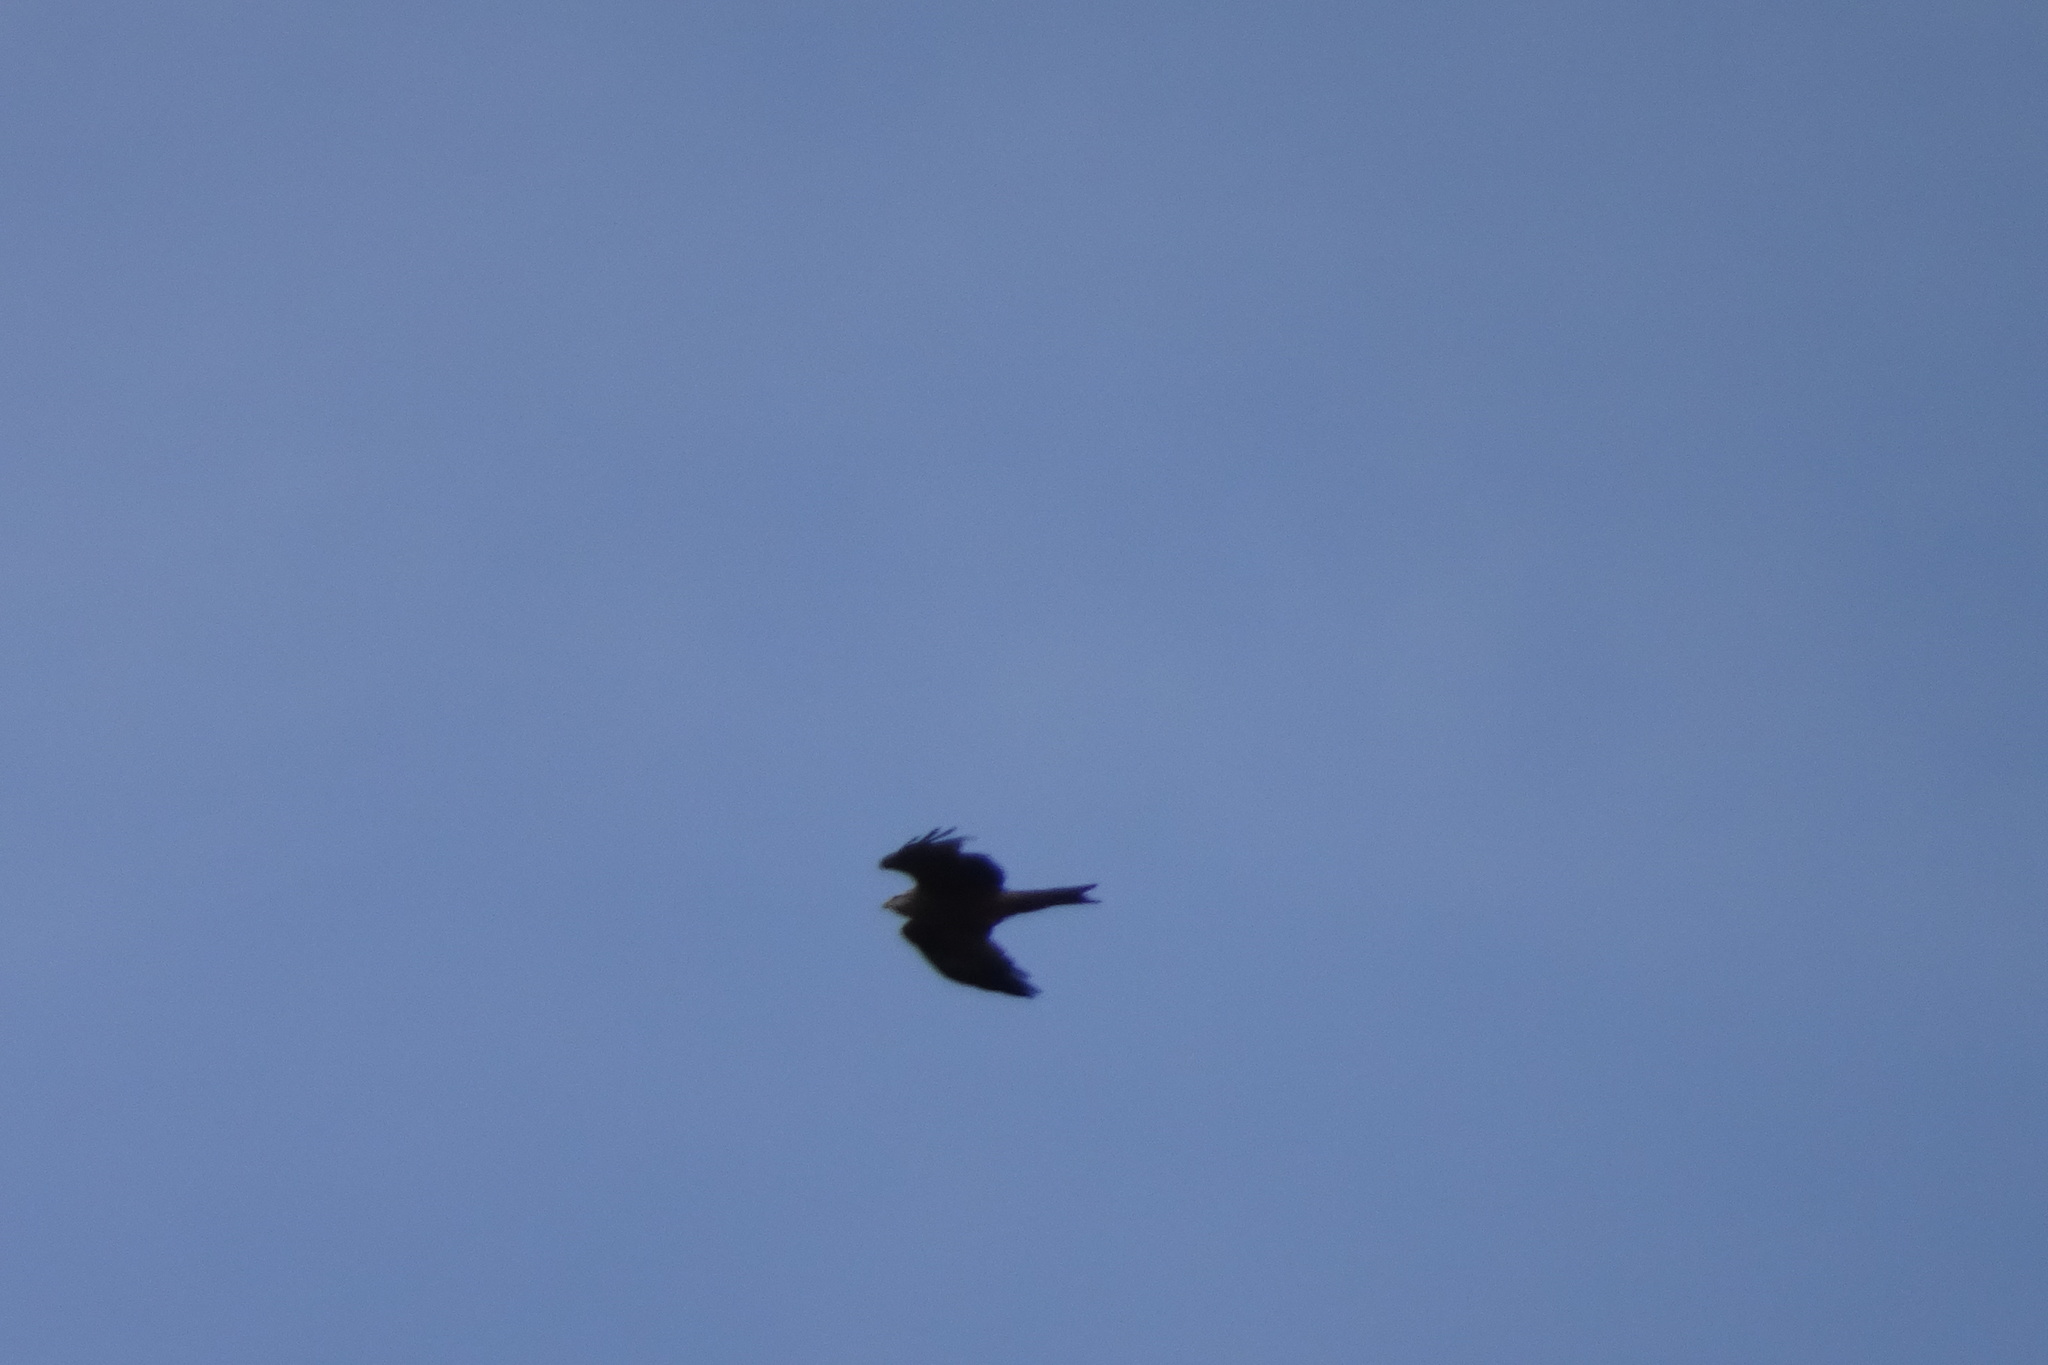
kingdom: Animalia
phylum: Chordata
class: Aves
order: Accipitriformes
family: Accipitridae
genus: Milvus
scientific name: Milvus migrans
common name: Black kite
